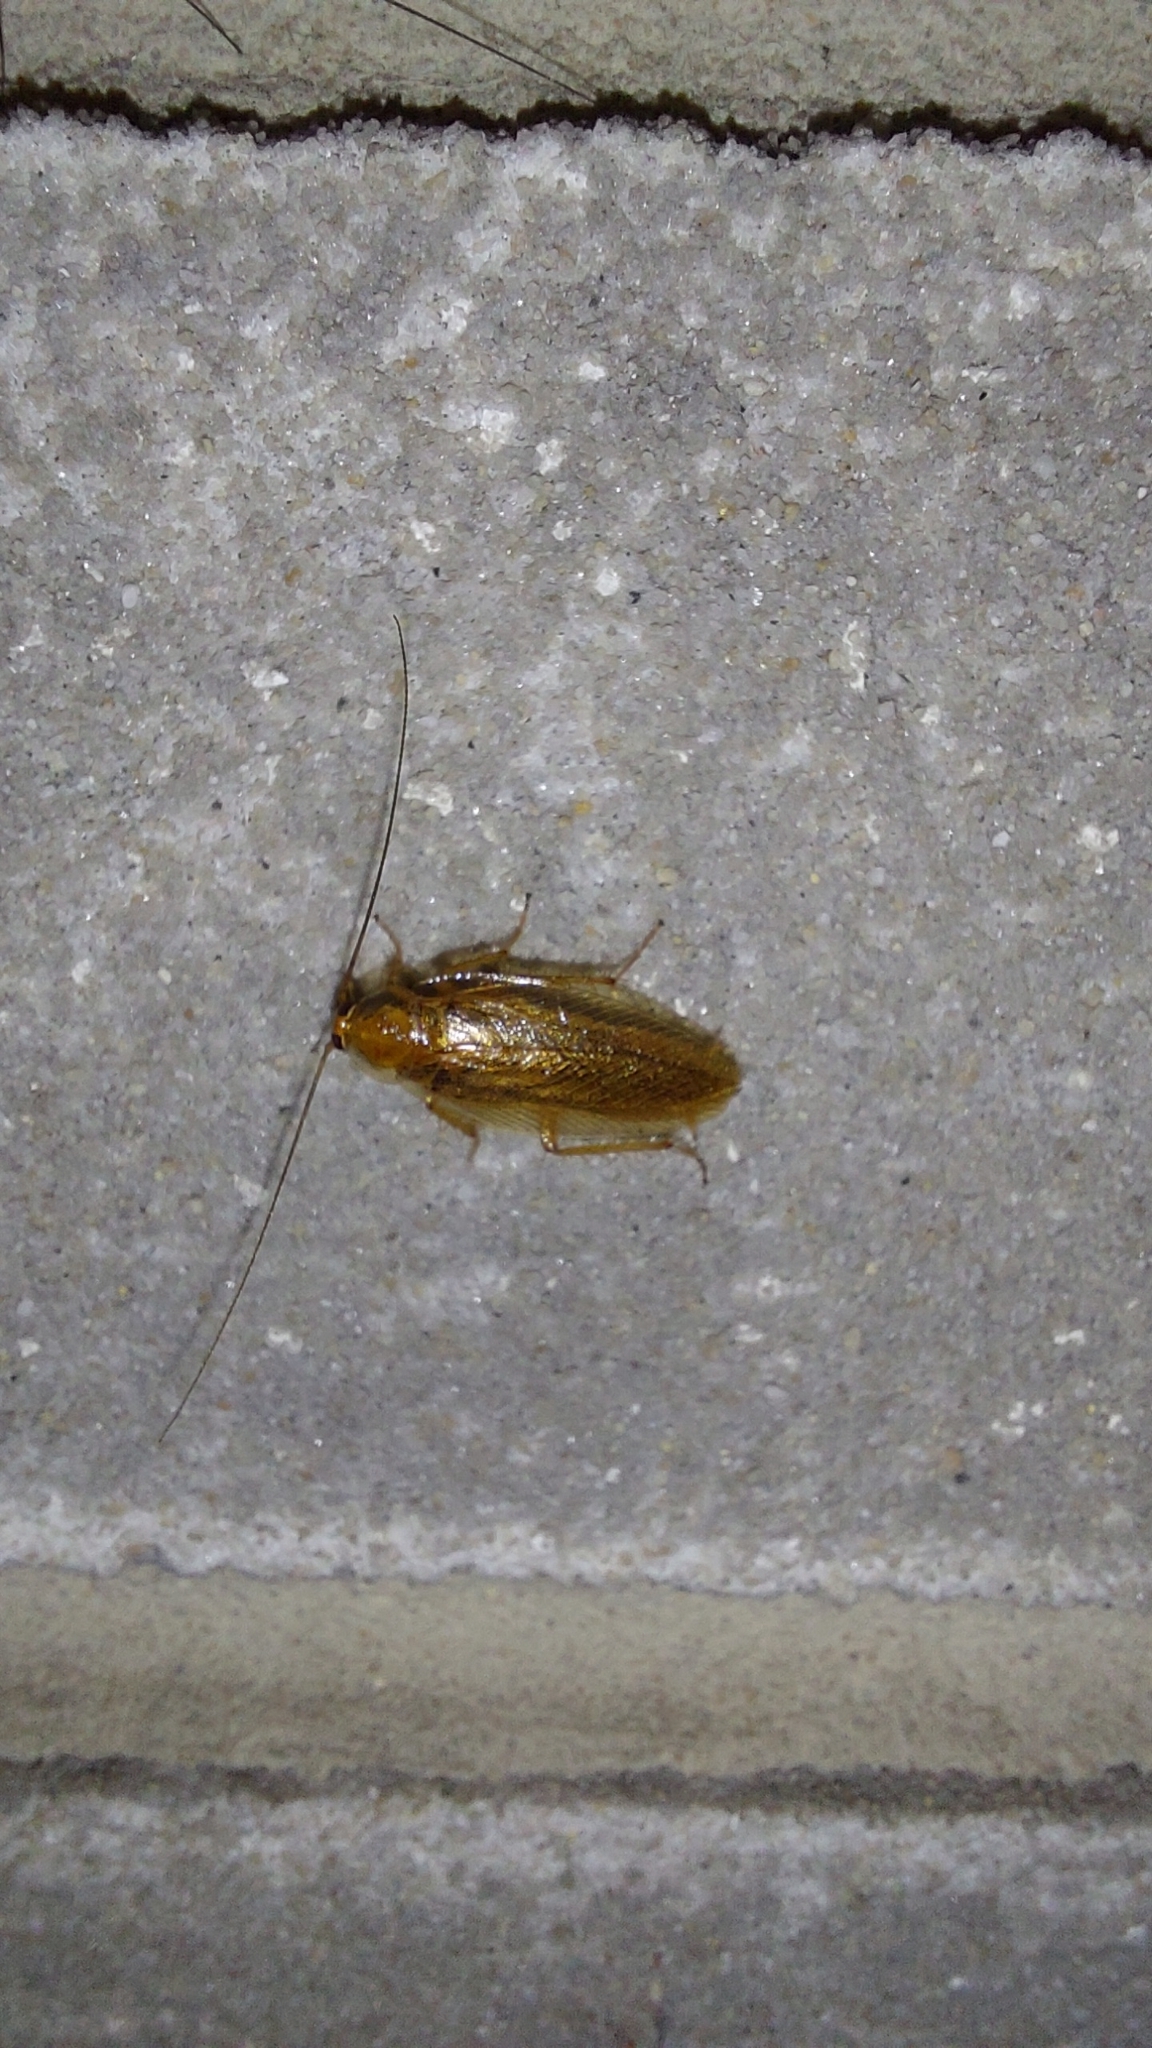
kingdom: Animalia
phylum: Arthropoda
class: Insecta
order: Blattodea
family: Ectobiidae
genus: Ectobius
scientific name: Ectobius vittiventris
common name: Garden cockroach
